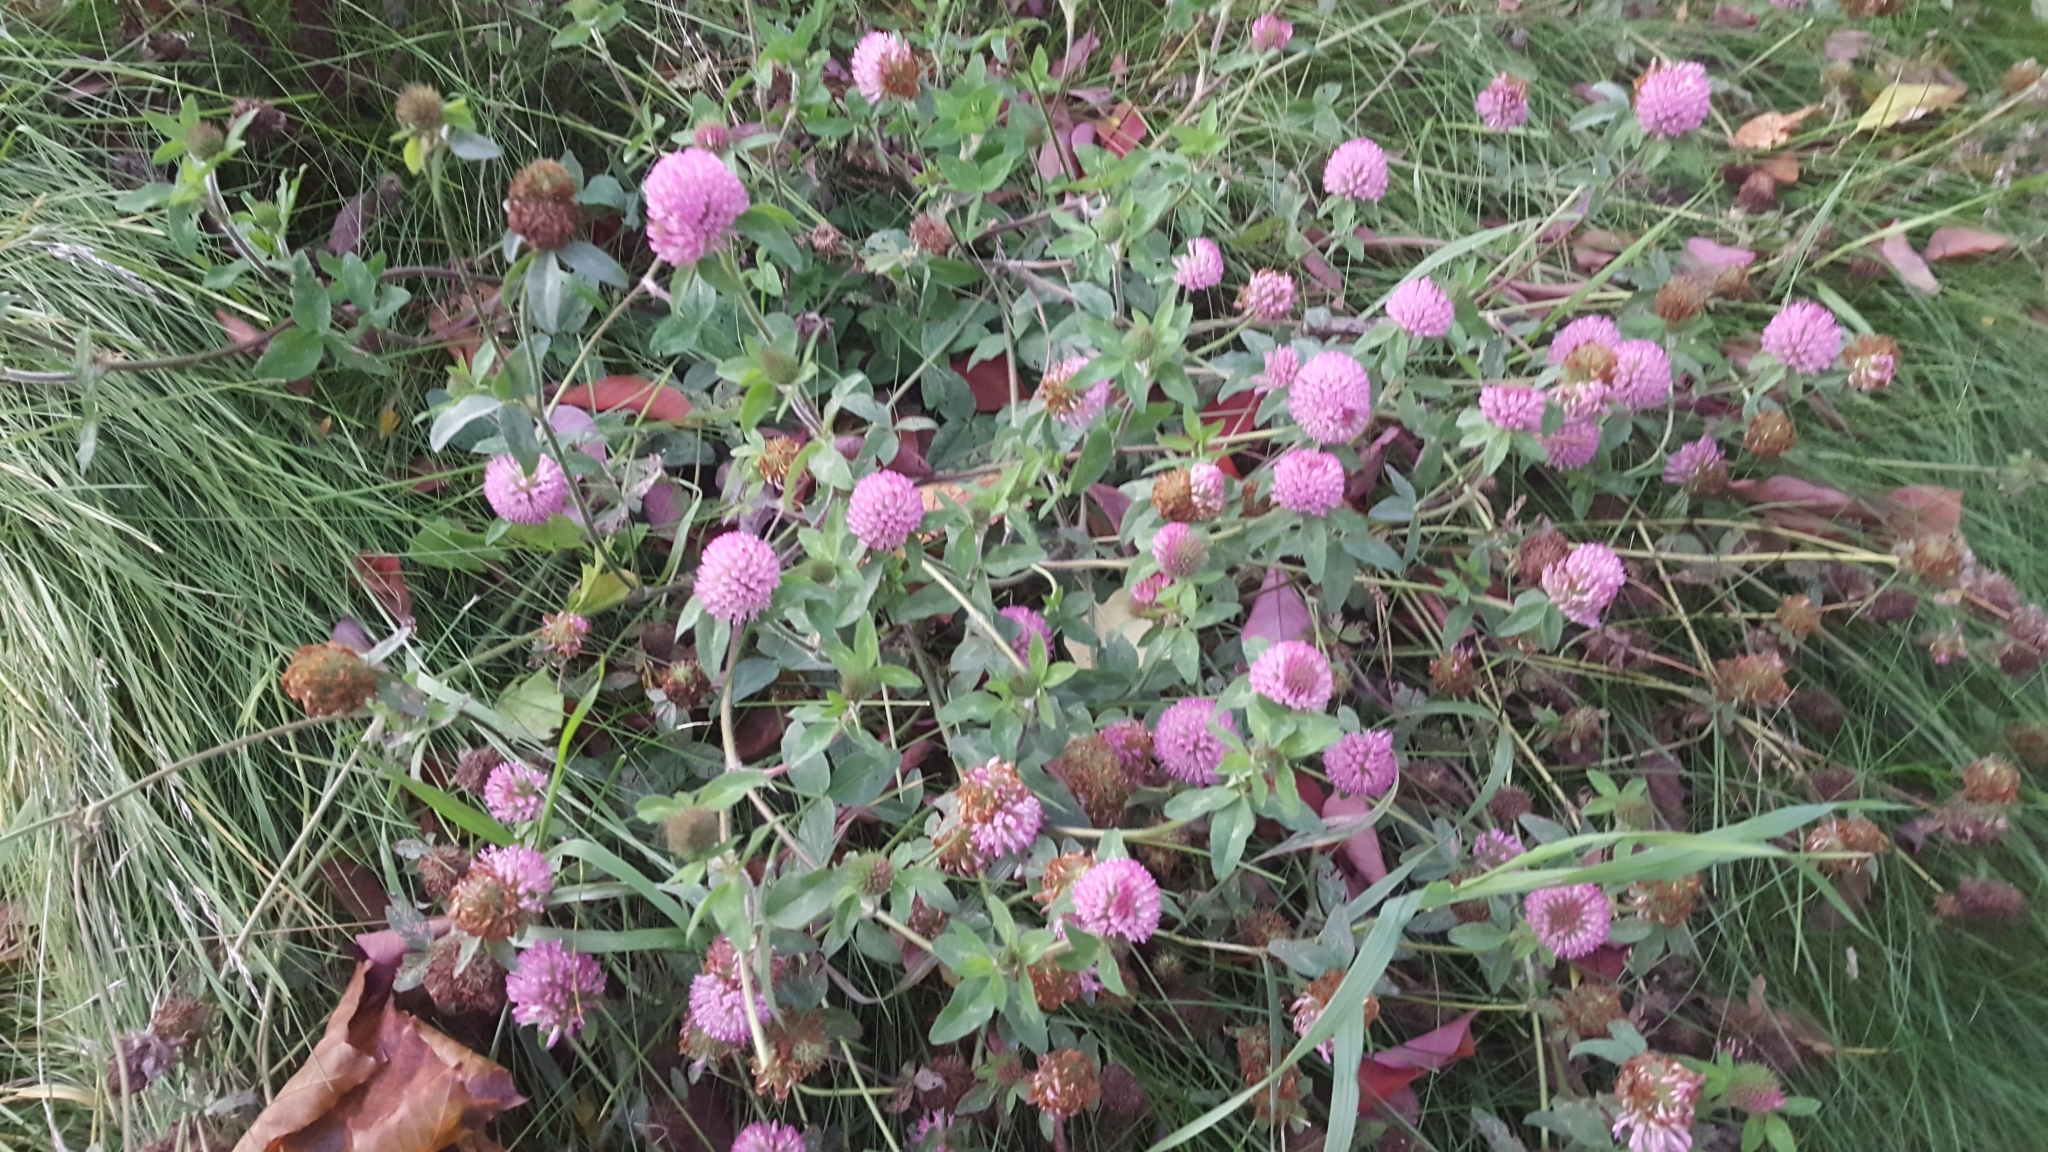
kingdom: Plantae
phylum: Tracheophyta
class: Magnoliopsida
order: Fabales
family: Fabaceae
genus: Trifolium
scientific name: Trifolium pratense
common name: Red clover
